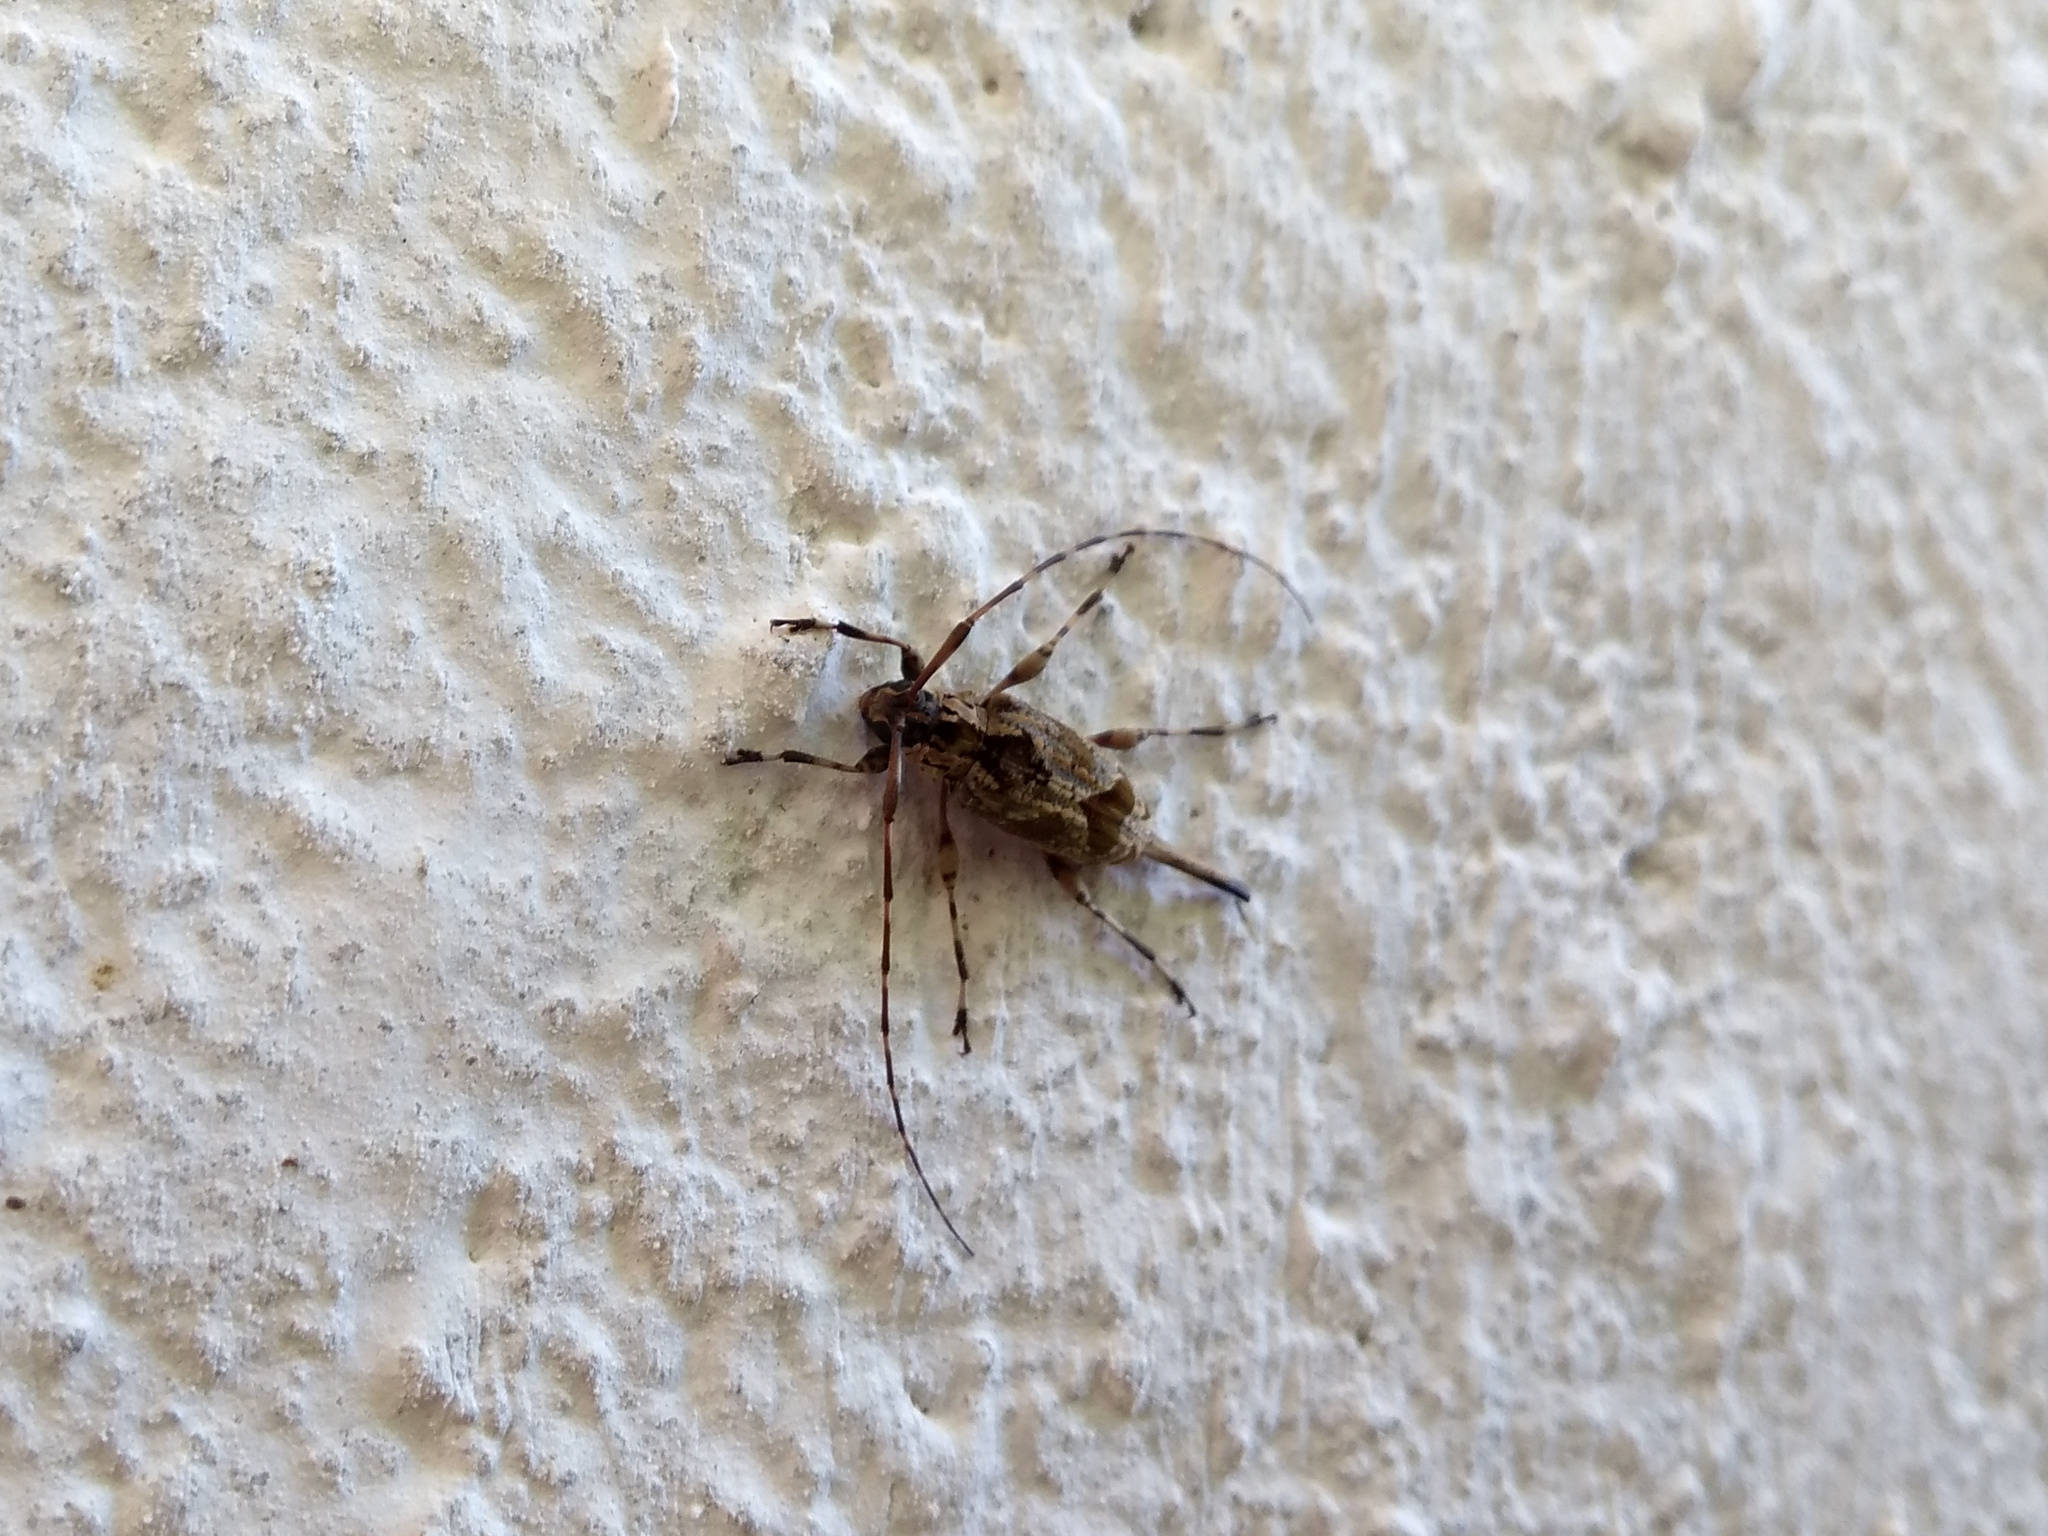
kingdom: Animalia
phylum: Arthropoda
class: Insecta
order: Coleoptera
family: Cerambycidae
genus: Eutrypanus
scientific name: Eutrypanus dorsalis
